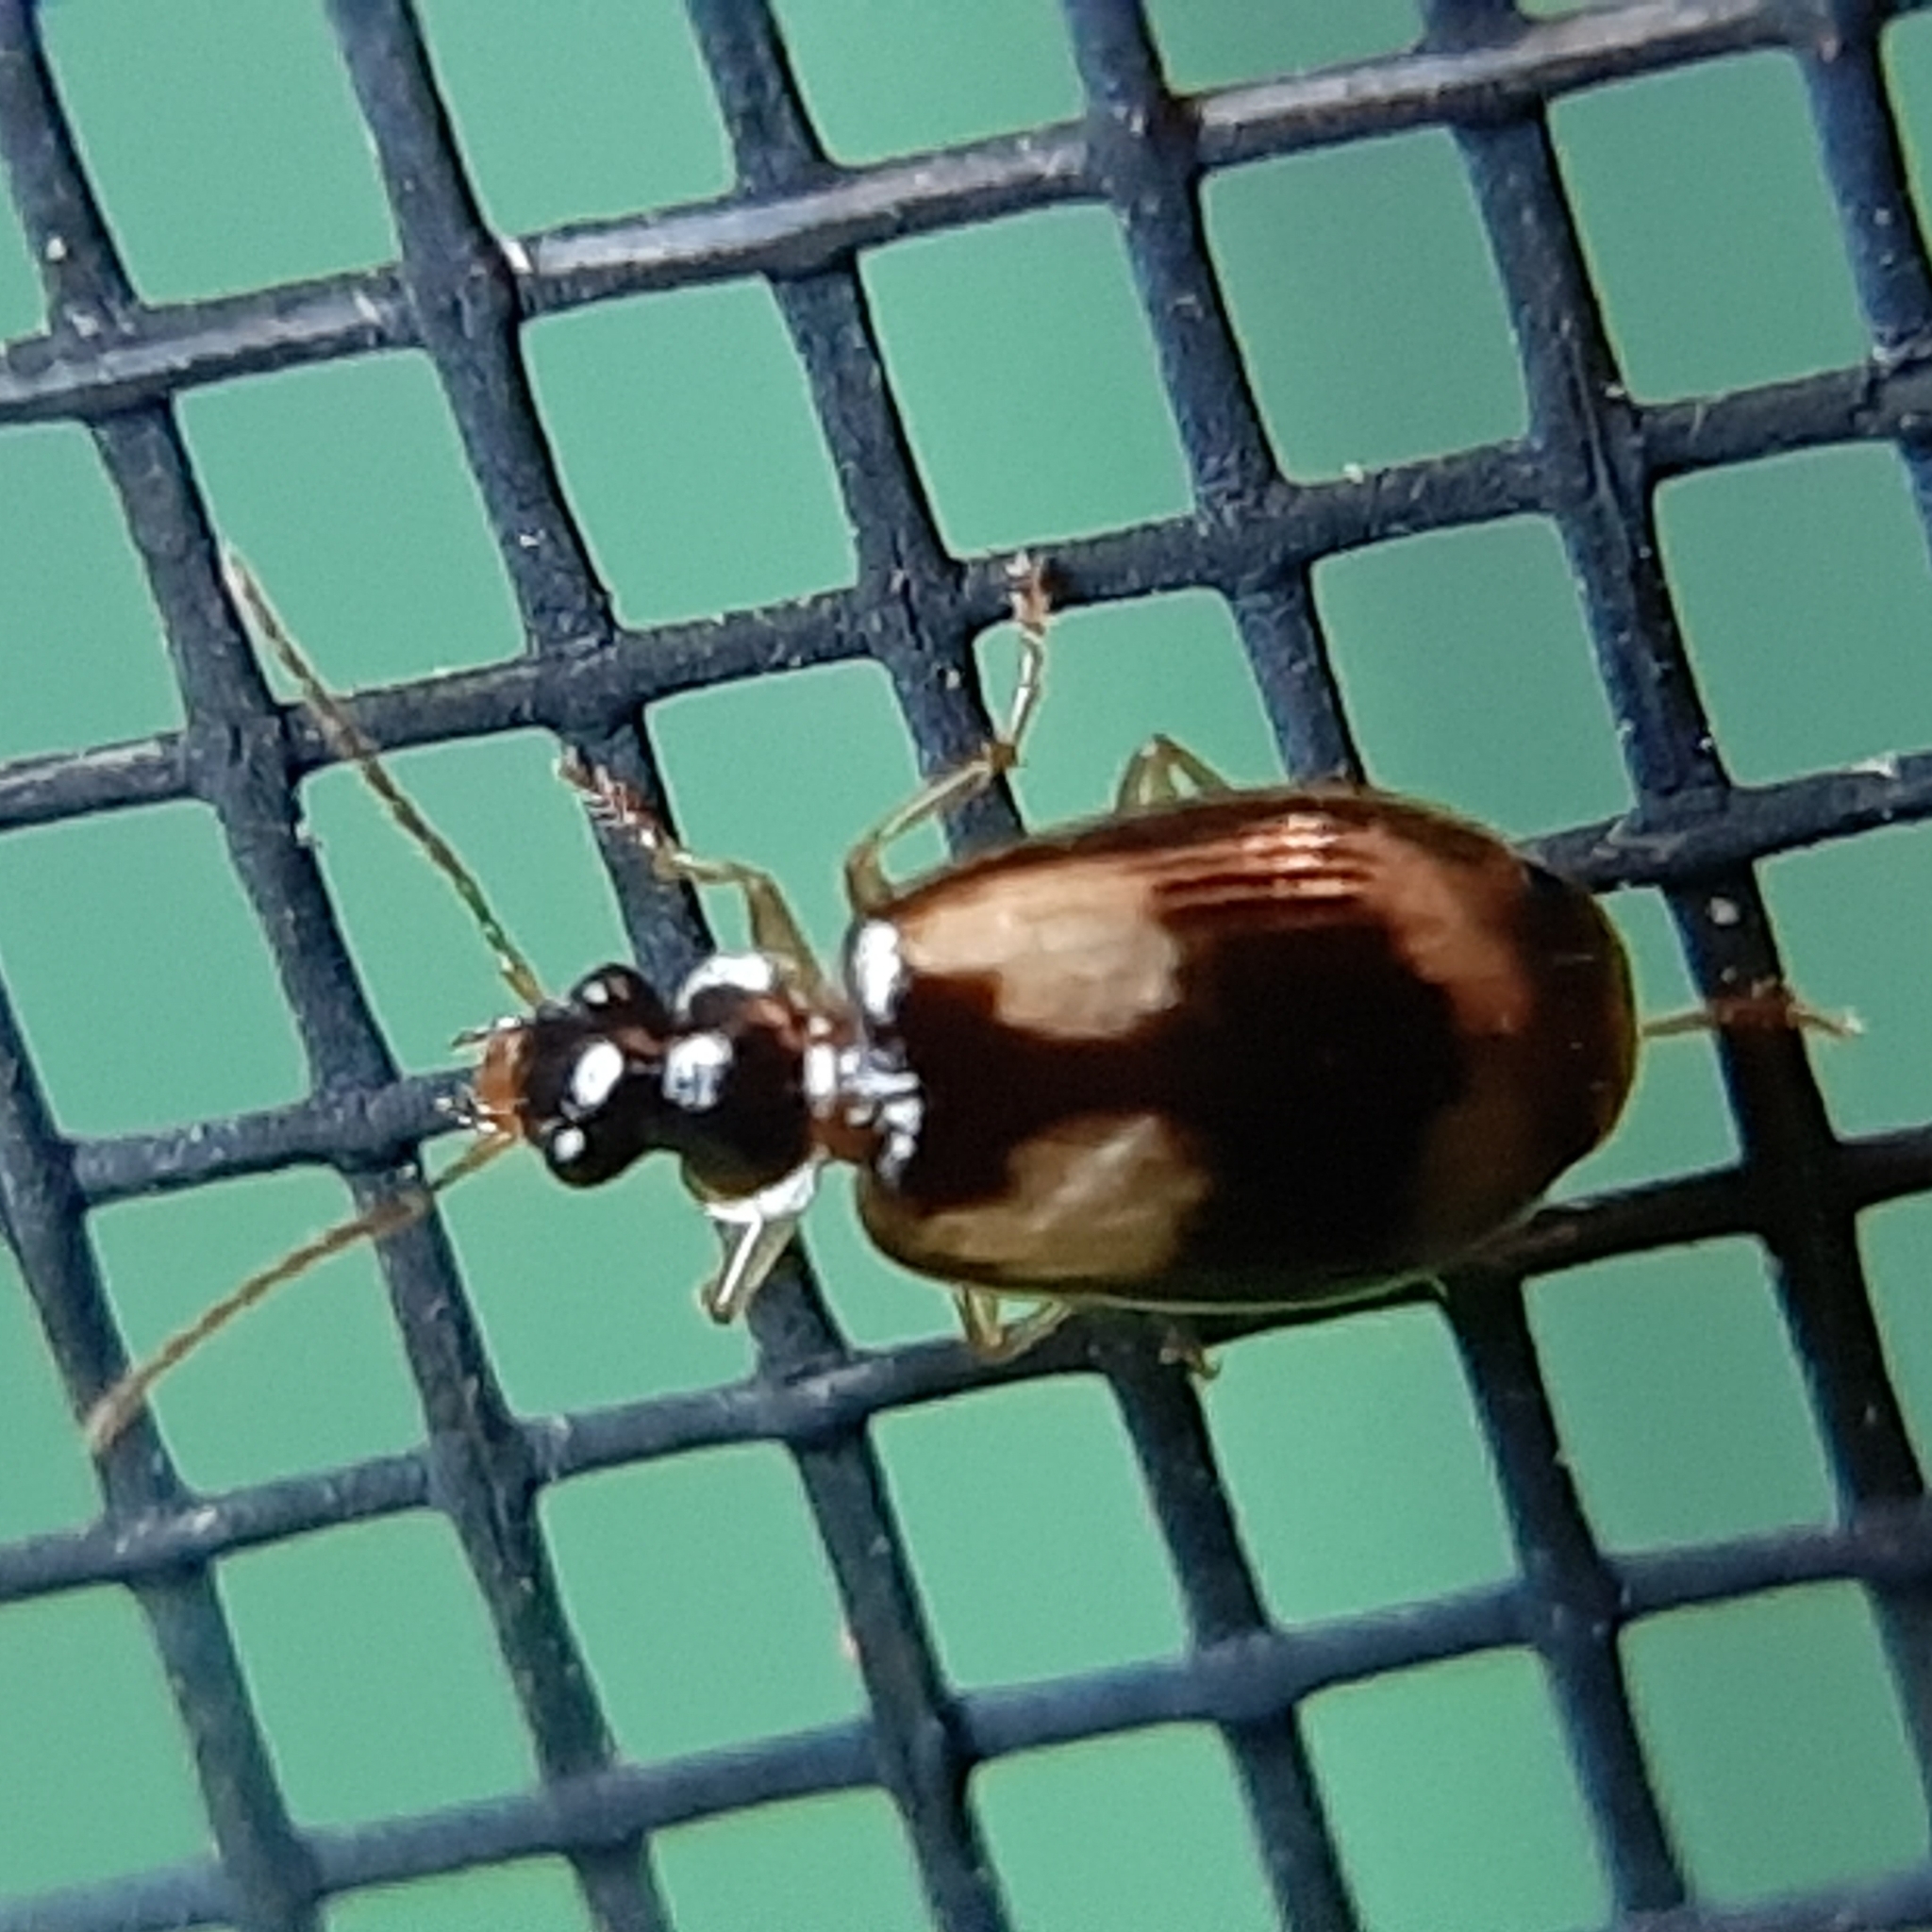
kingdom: Animalia
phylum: Arthropoda
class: Insecta
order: Coleoptera
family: Carabidae
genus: Lebia
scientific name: Lebia fuscata
